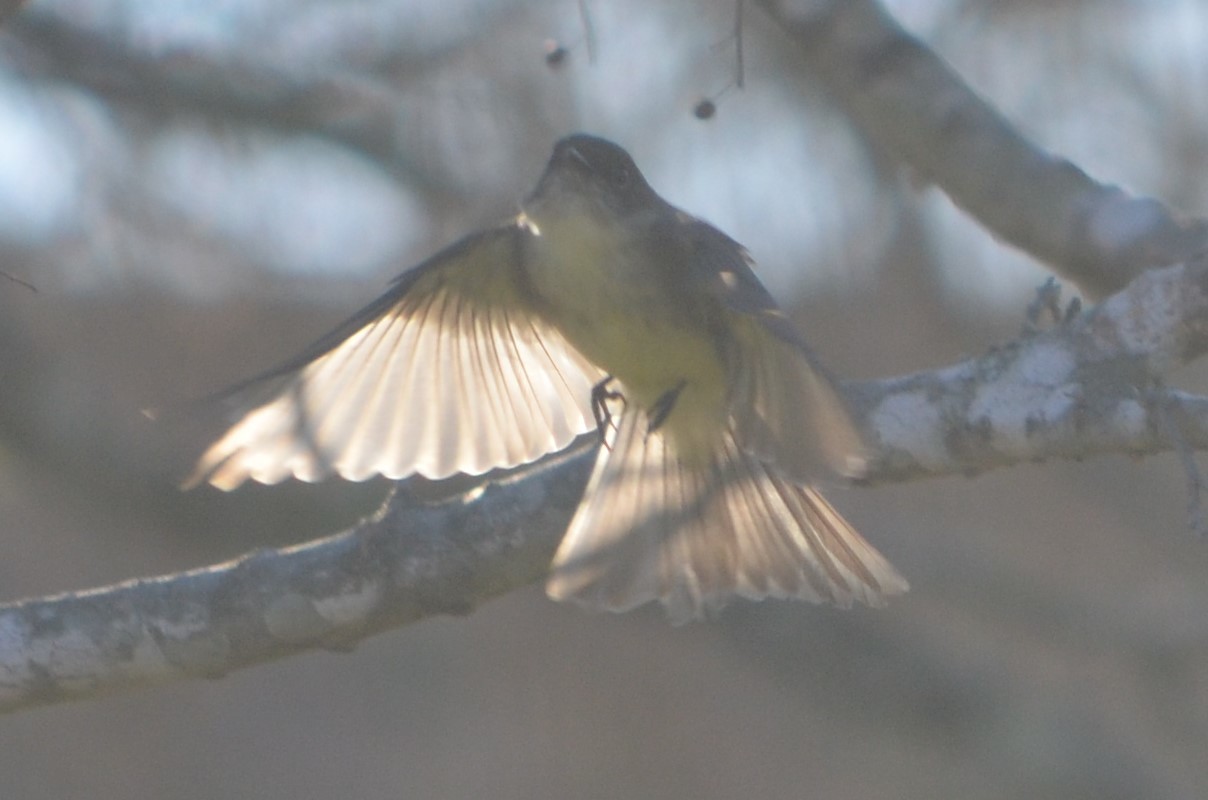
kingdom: Animalia
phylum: Chordata
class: Aves
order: Passeriformes
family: Tyrannidae
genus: Sayornis
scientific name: Sayornis phoebe
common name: Eastern phoebe
